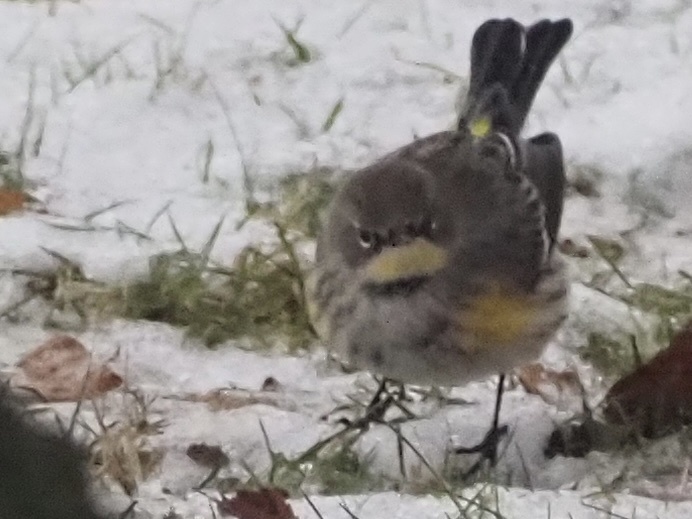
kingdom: Animalia
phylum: Chordata
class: Aves
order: Passeriformes
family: Parulidae
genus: Setophaga
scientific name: Setophaga coronata
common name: Myrtle warbler
